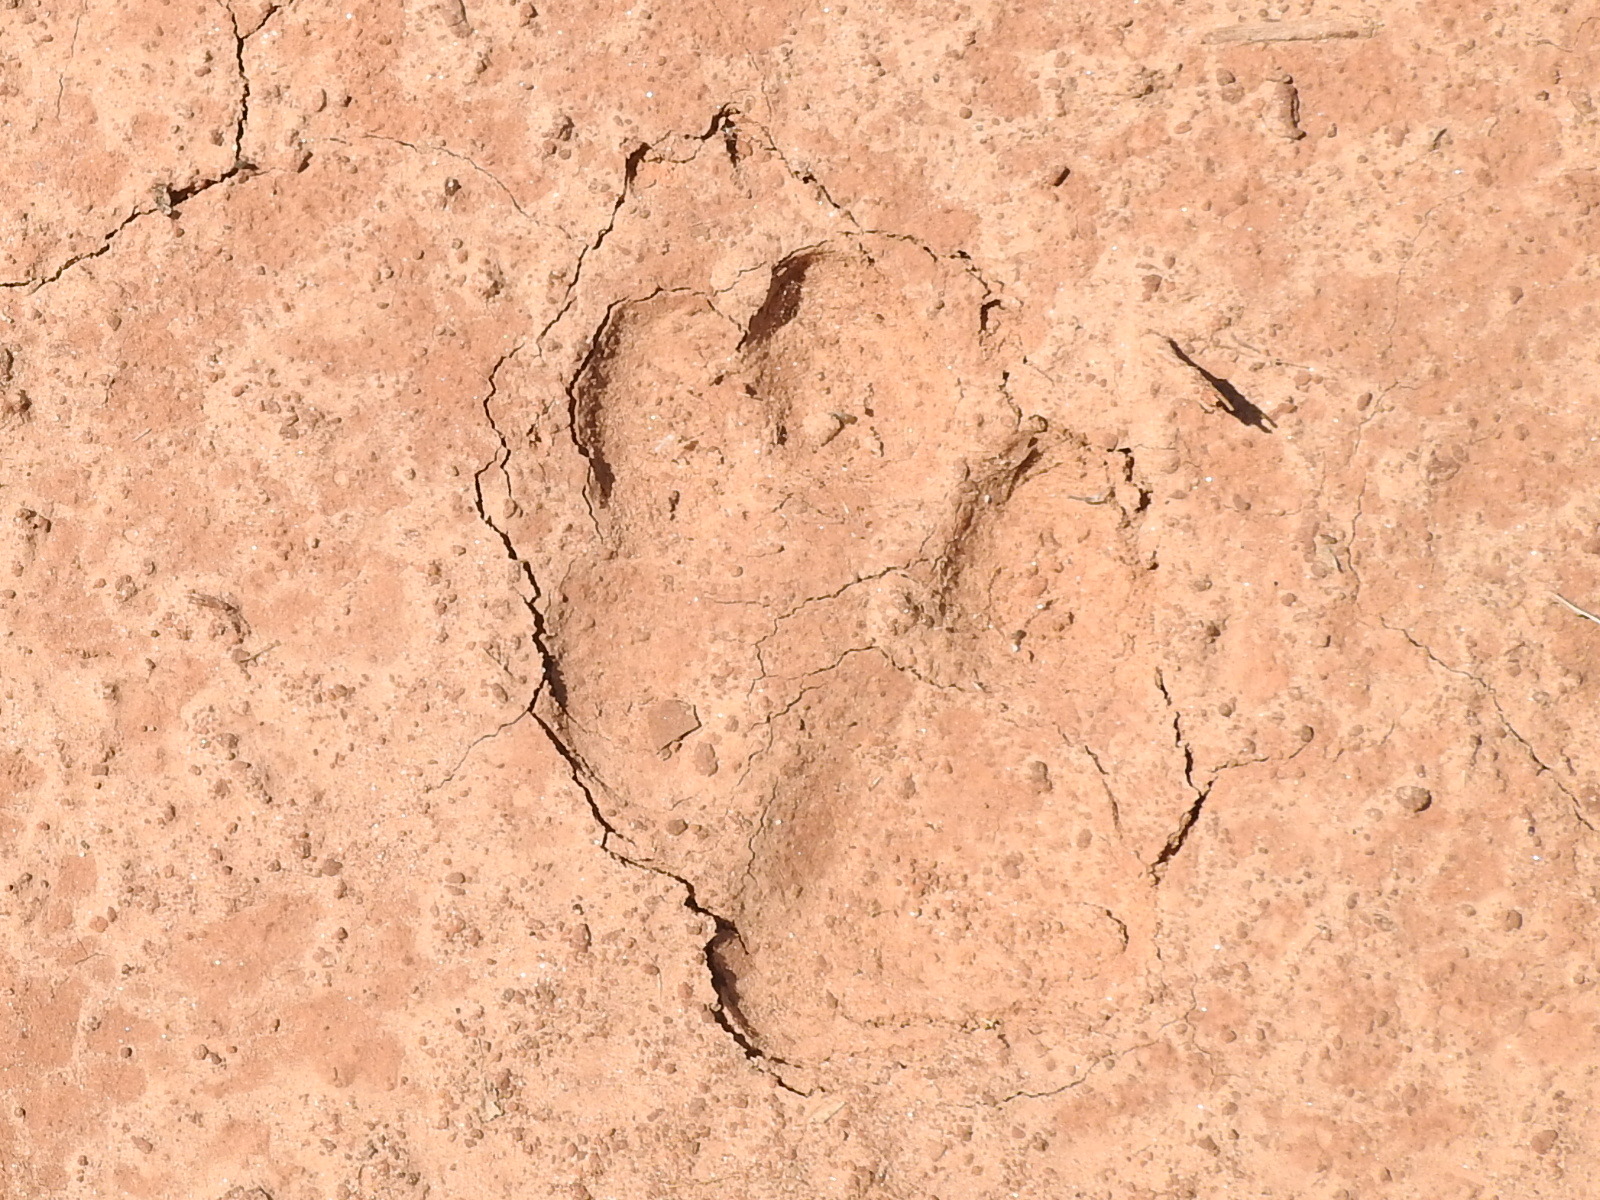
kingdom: Animalia
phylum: Chordata
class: Mammalia
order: Carnivora
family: Canidae
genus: Canis
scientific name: Canis latrans
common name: Coyote
